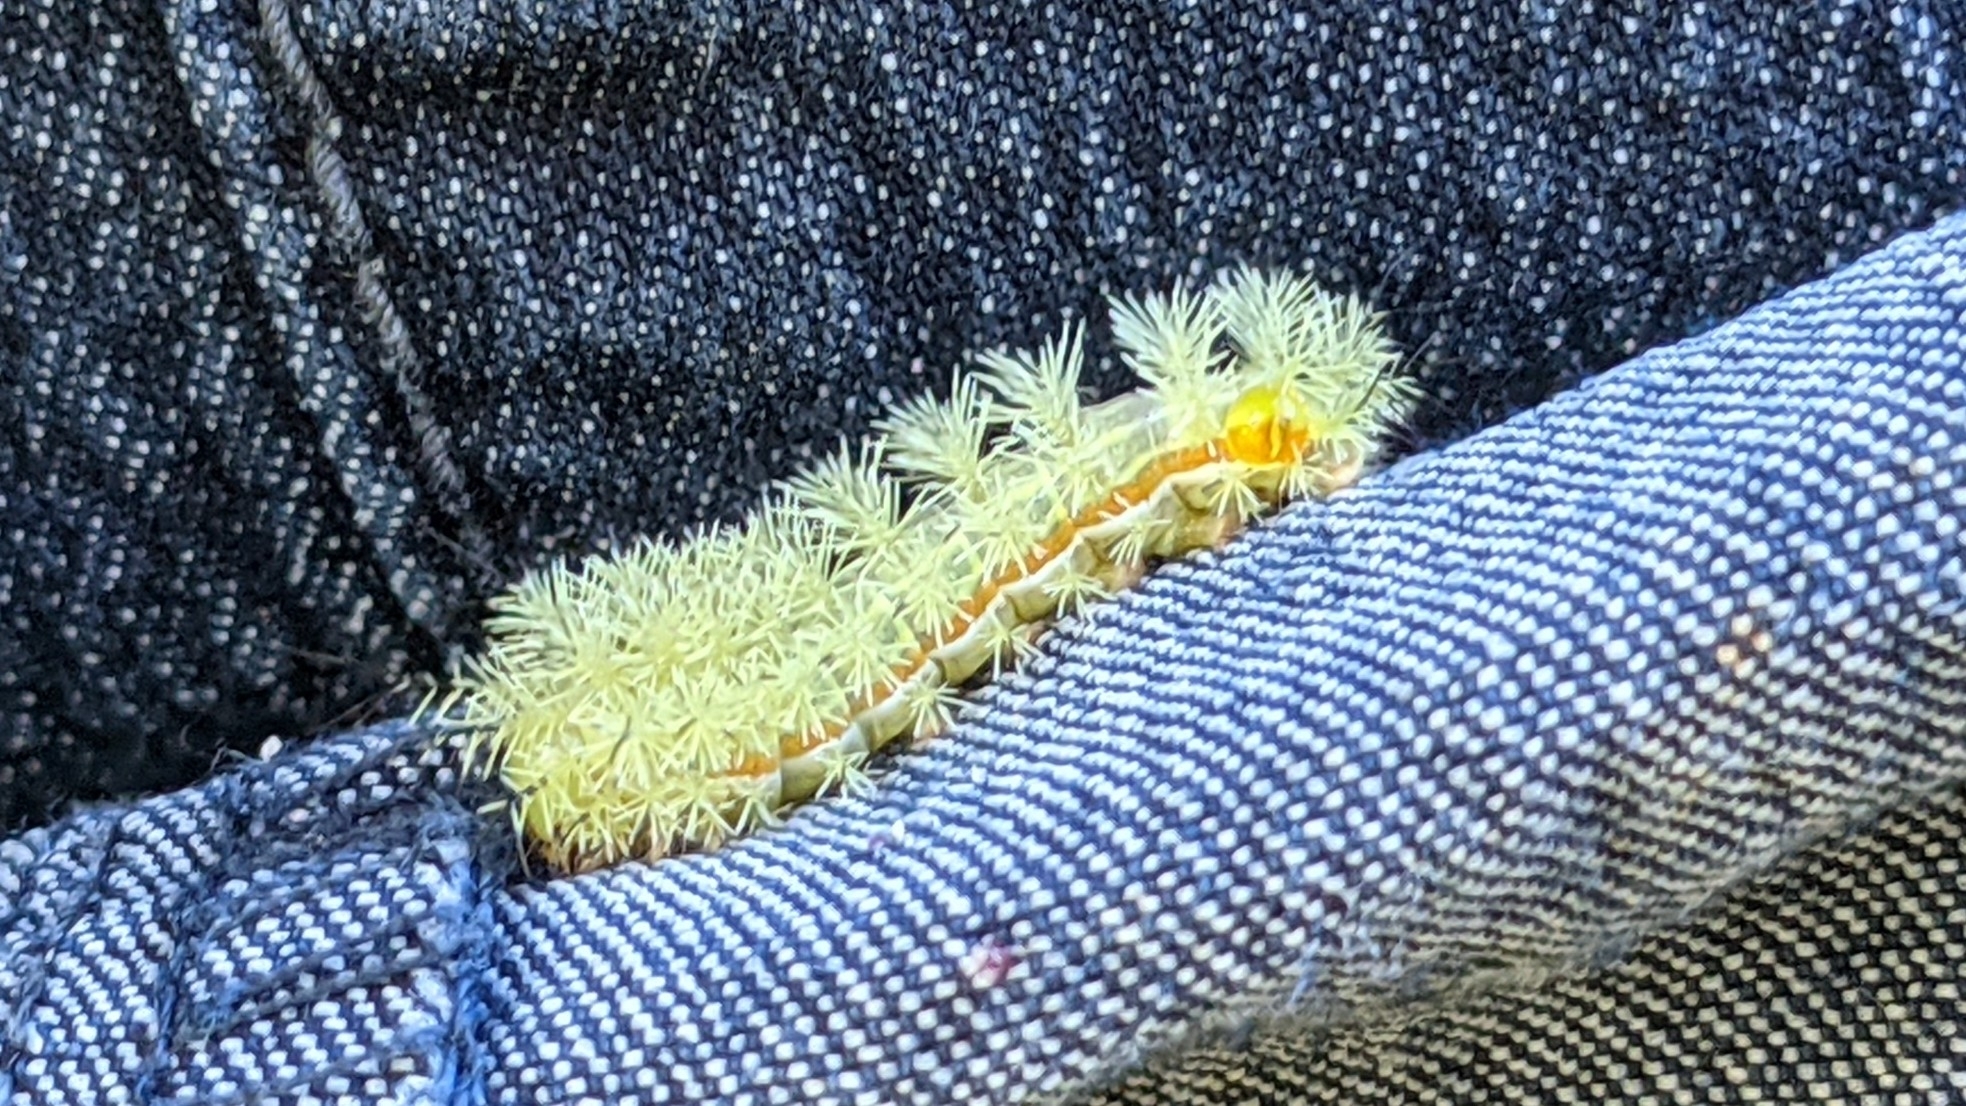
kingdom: Animalia
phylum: Arthropoda
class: Insecta
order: Lepidoptera
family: Saturniidae
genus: Automeris
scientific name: Automeris io
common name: Io moth
